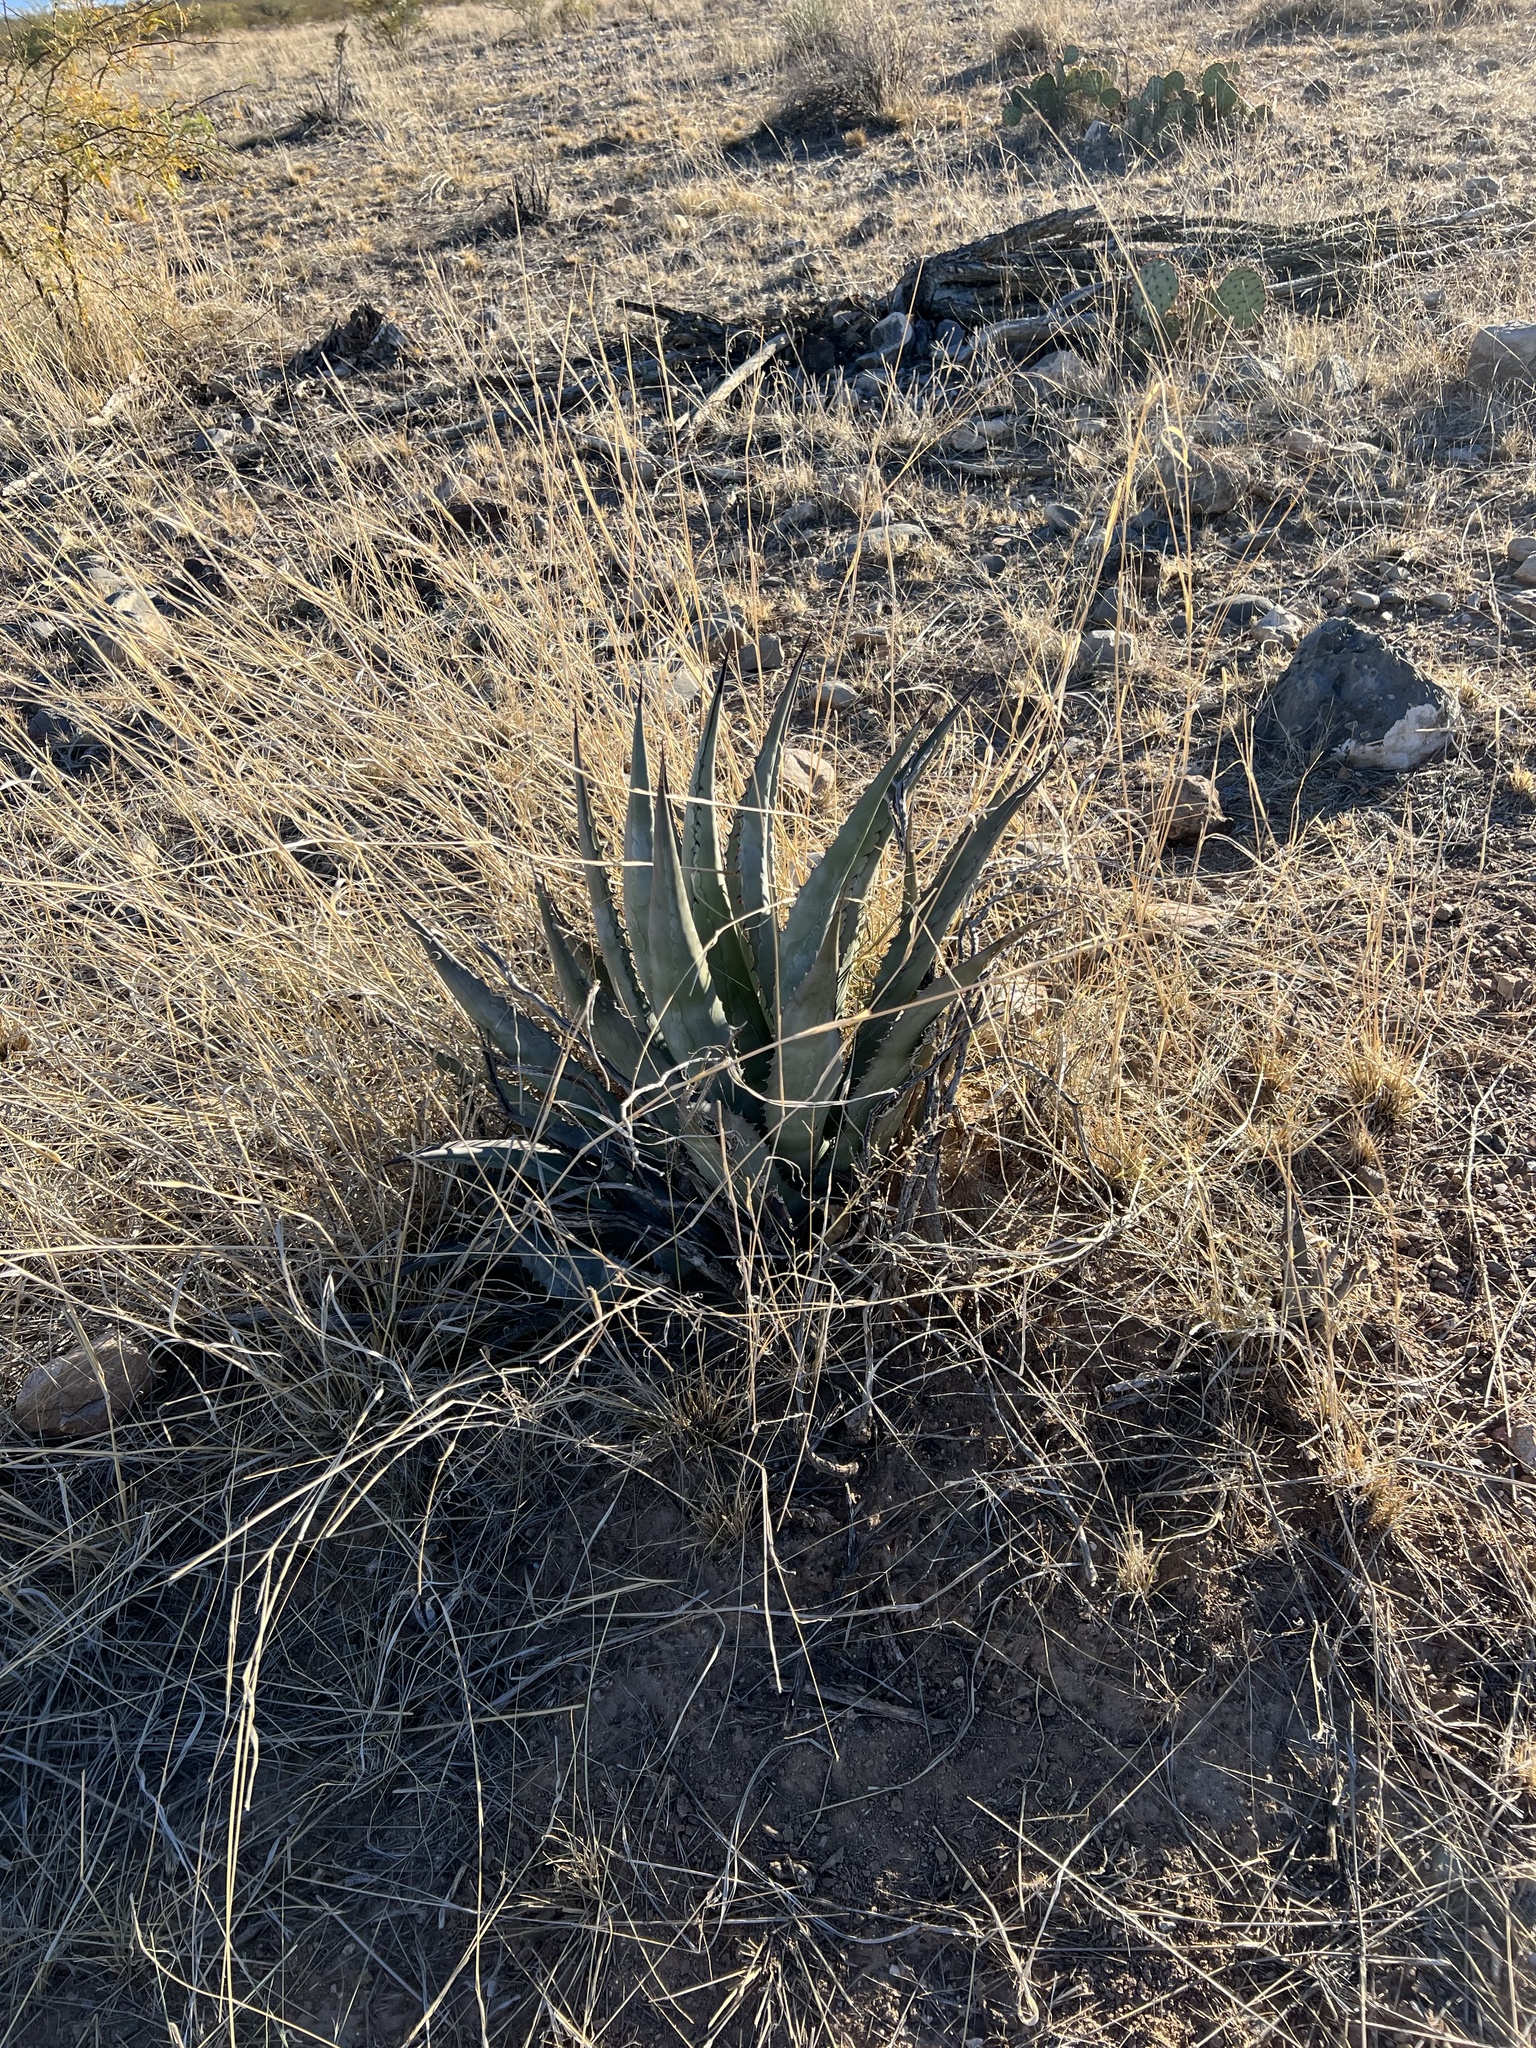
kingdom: Plantae
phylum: Tracheophyta
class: Liliopsida
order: Asparagales
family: Asparagaceae
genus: Agave
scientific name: Agave palmeri
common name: Palmer agave
